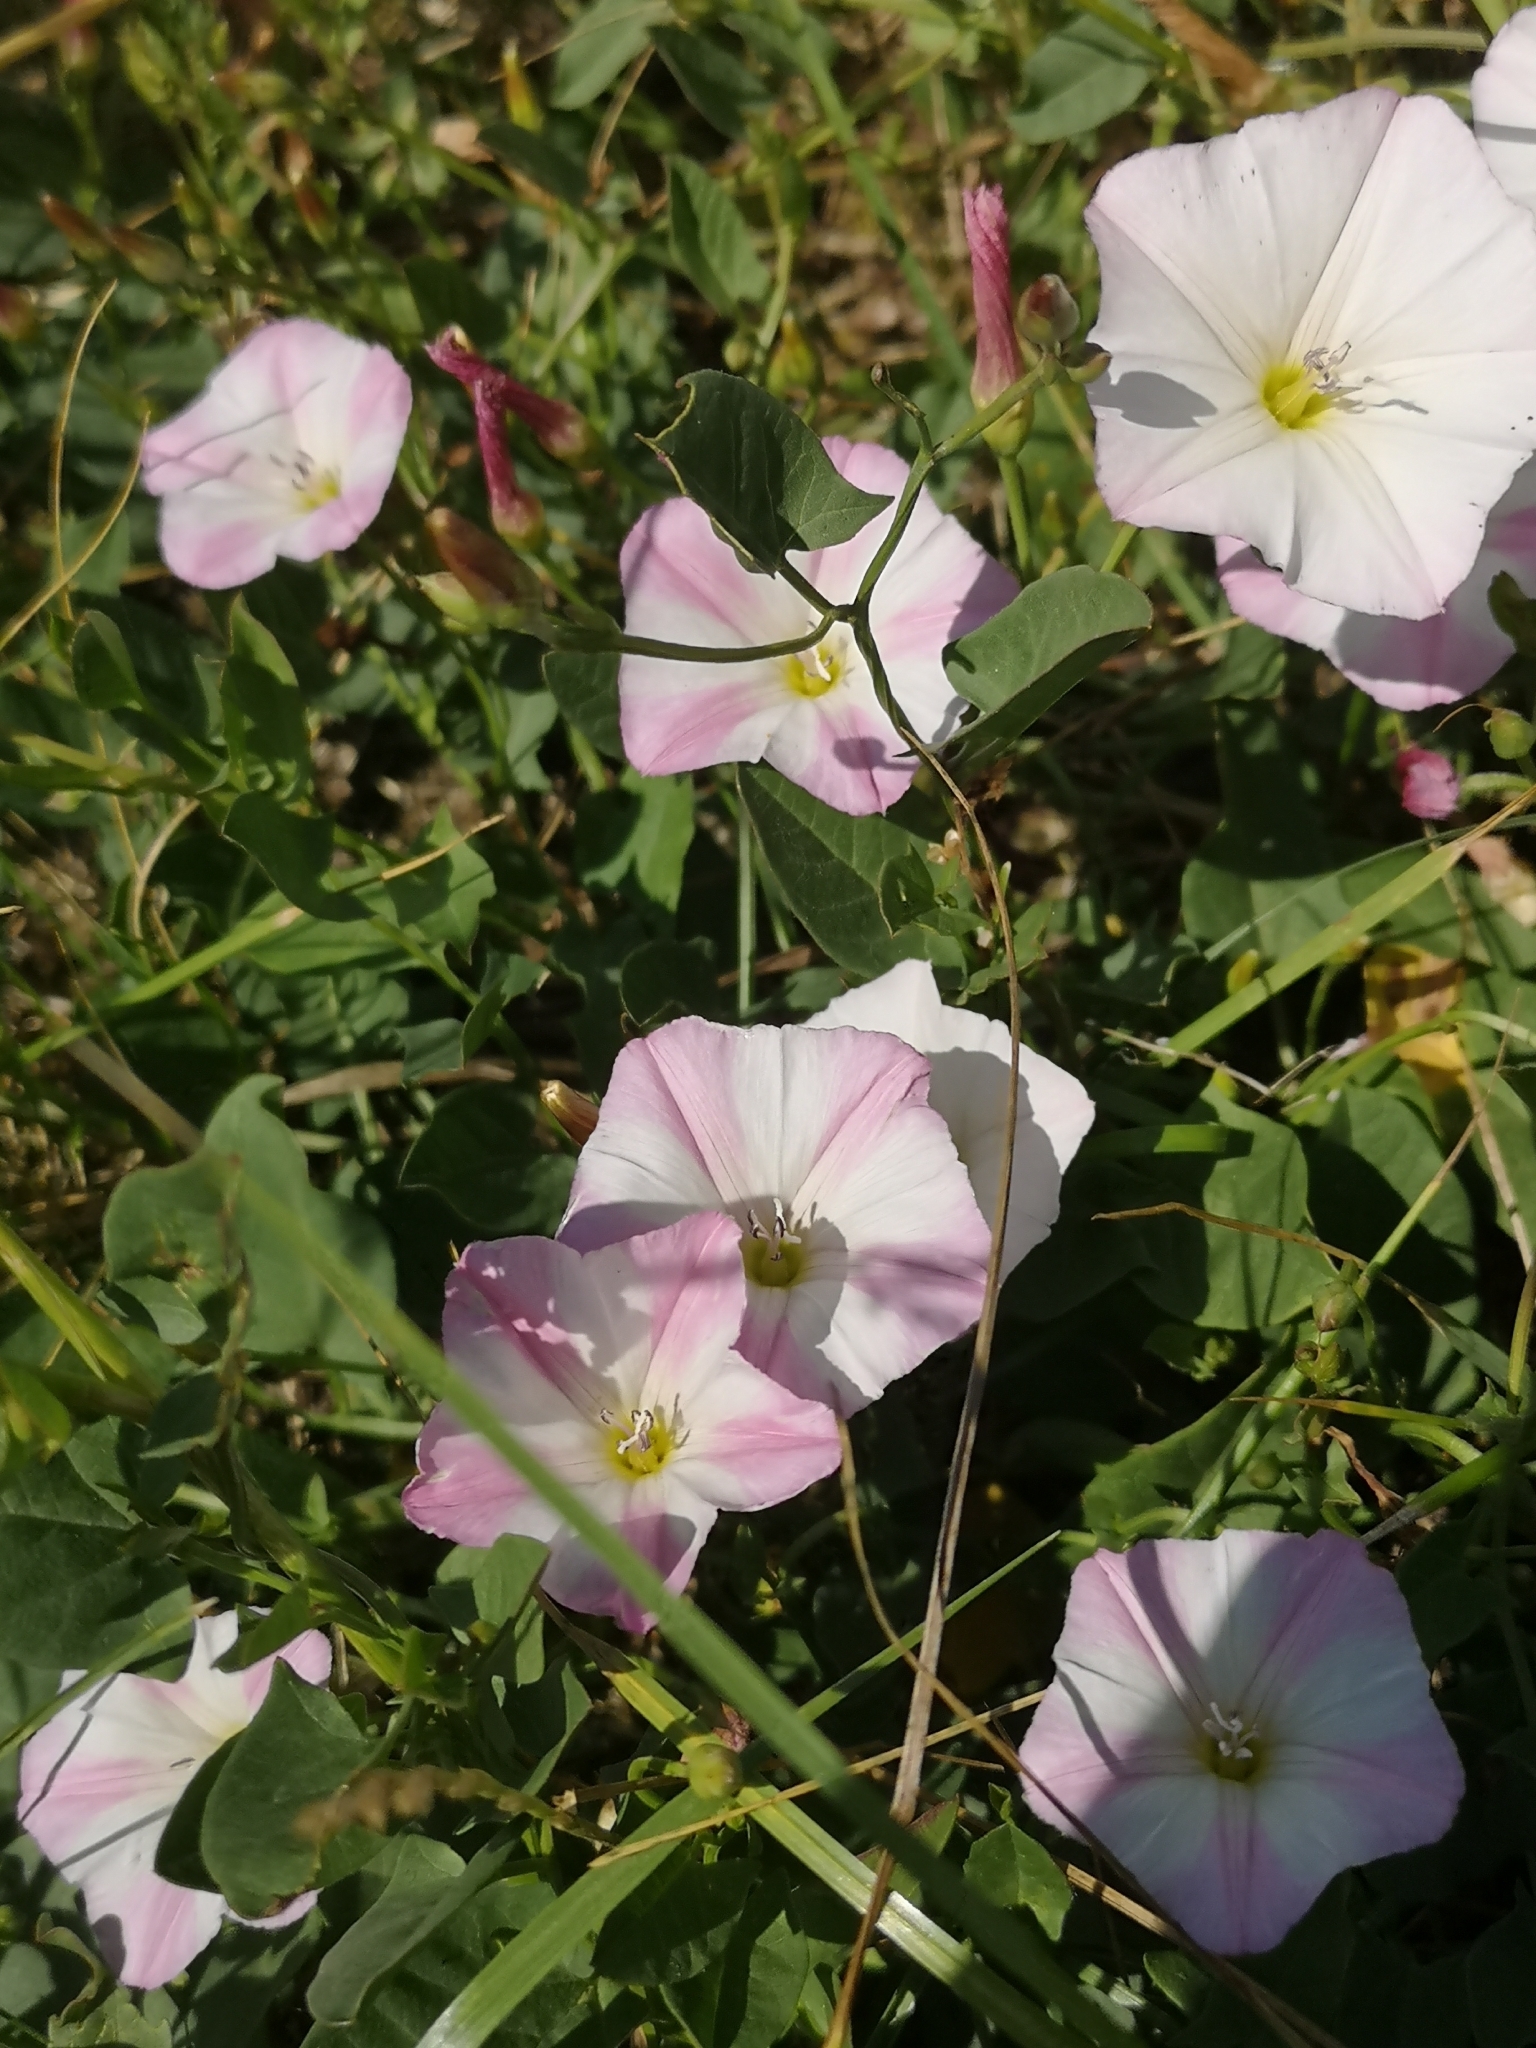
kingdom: Plantae
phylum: Tracheophyta
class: Magnoliopsida
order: Solanales
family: Convolvulaceae
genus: Convolvulus
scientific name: Convolvulus arvensis
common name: Field bindweed
